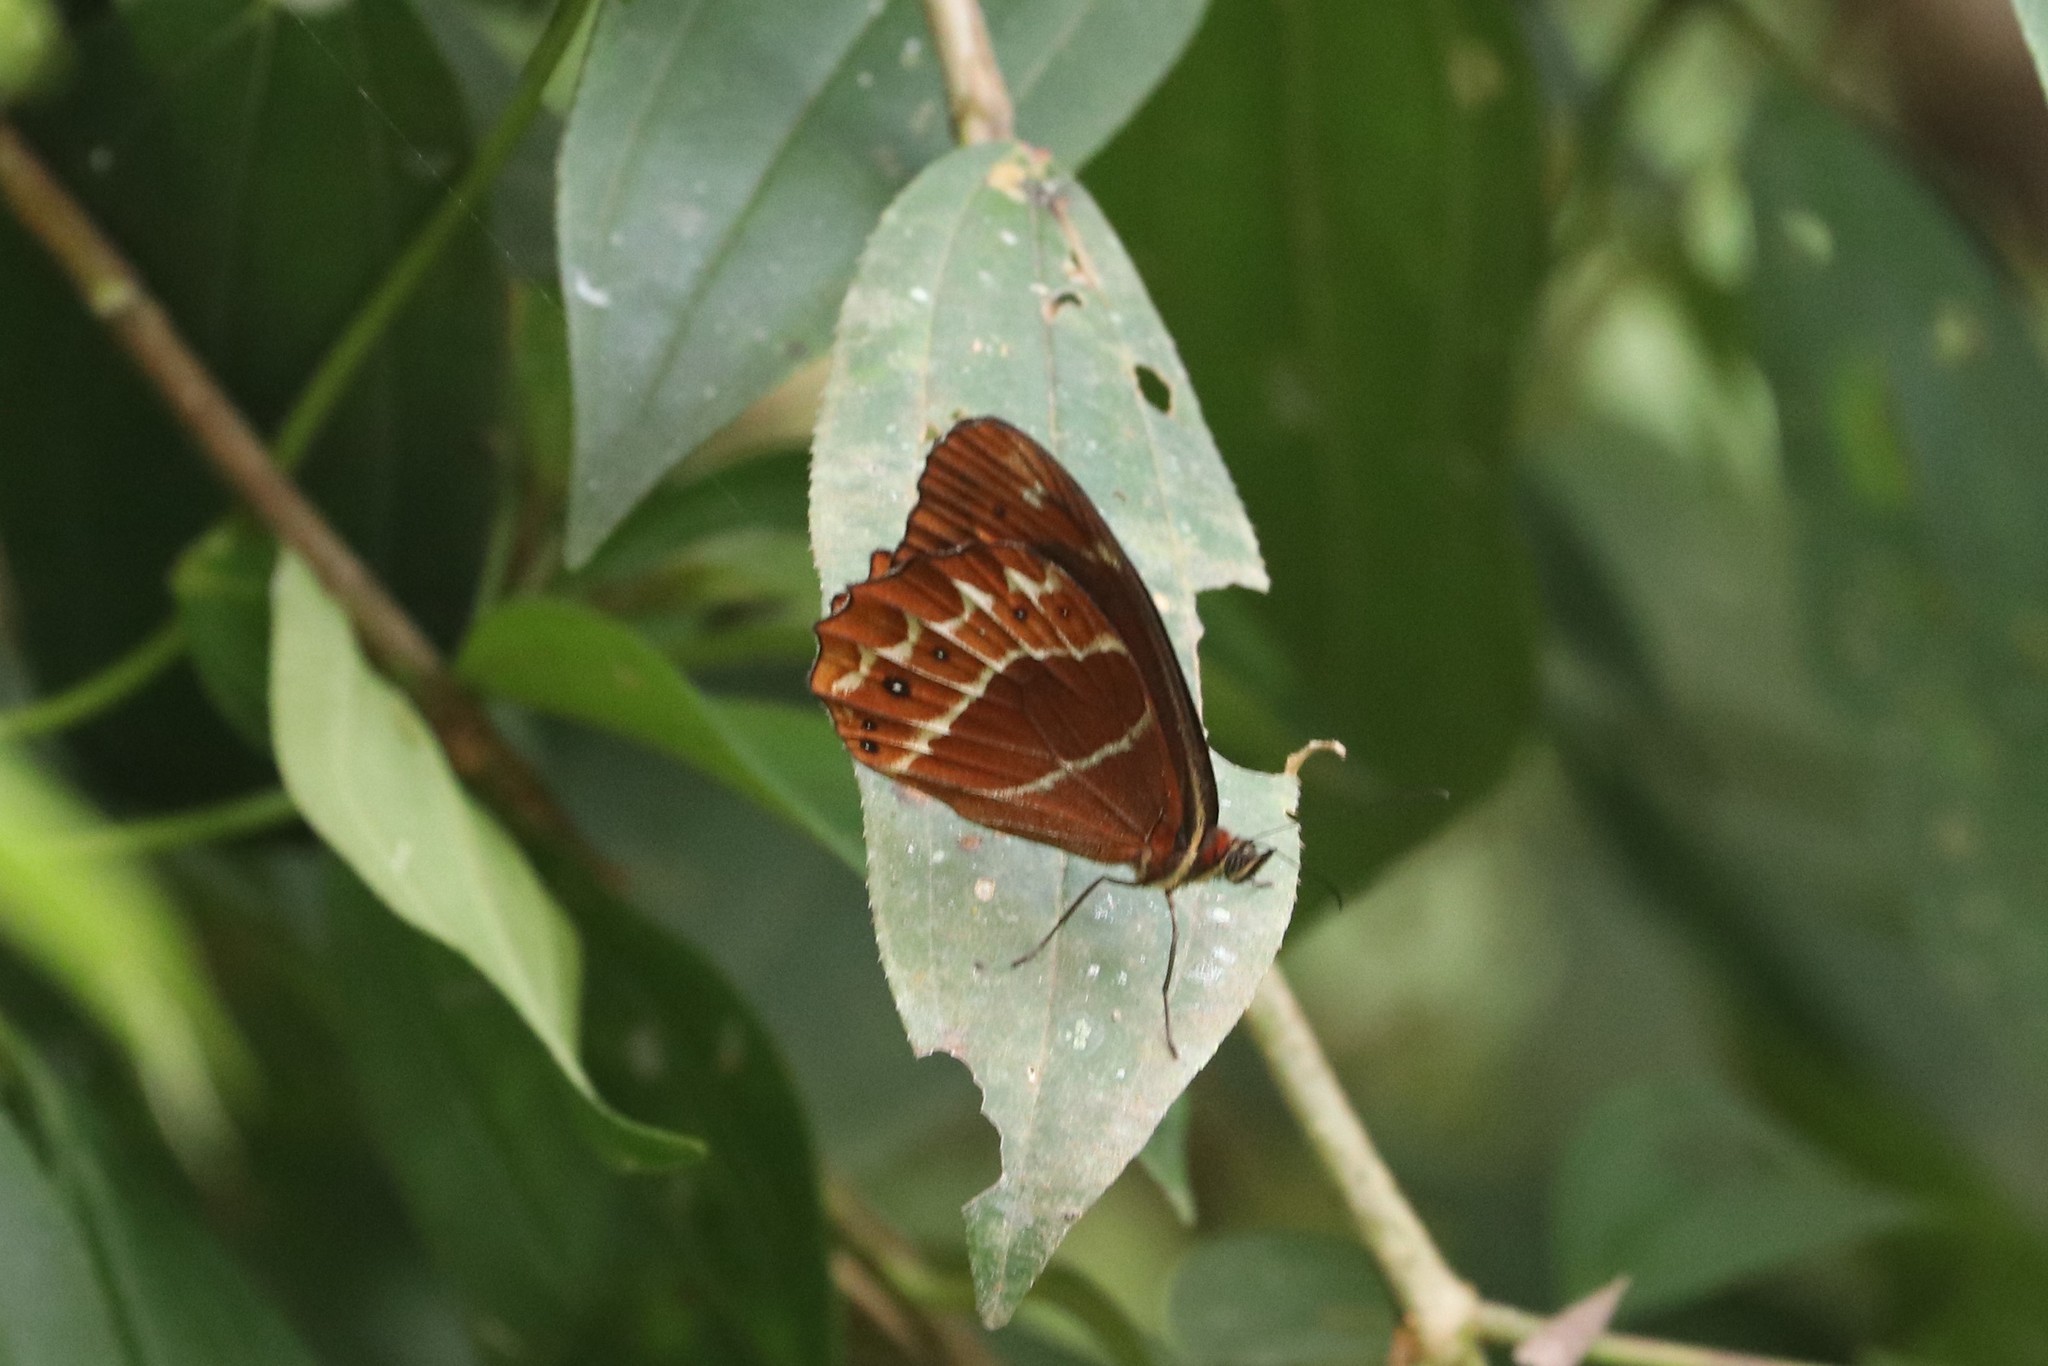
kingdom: Animalia
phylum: Arthropoda
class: Insecta
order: Lepidoptera
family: Nymphalidae
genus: Oxeoschistus
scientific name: Oxeoschistus puerta
